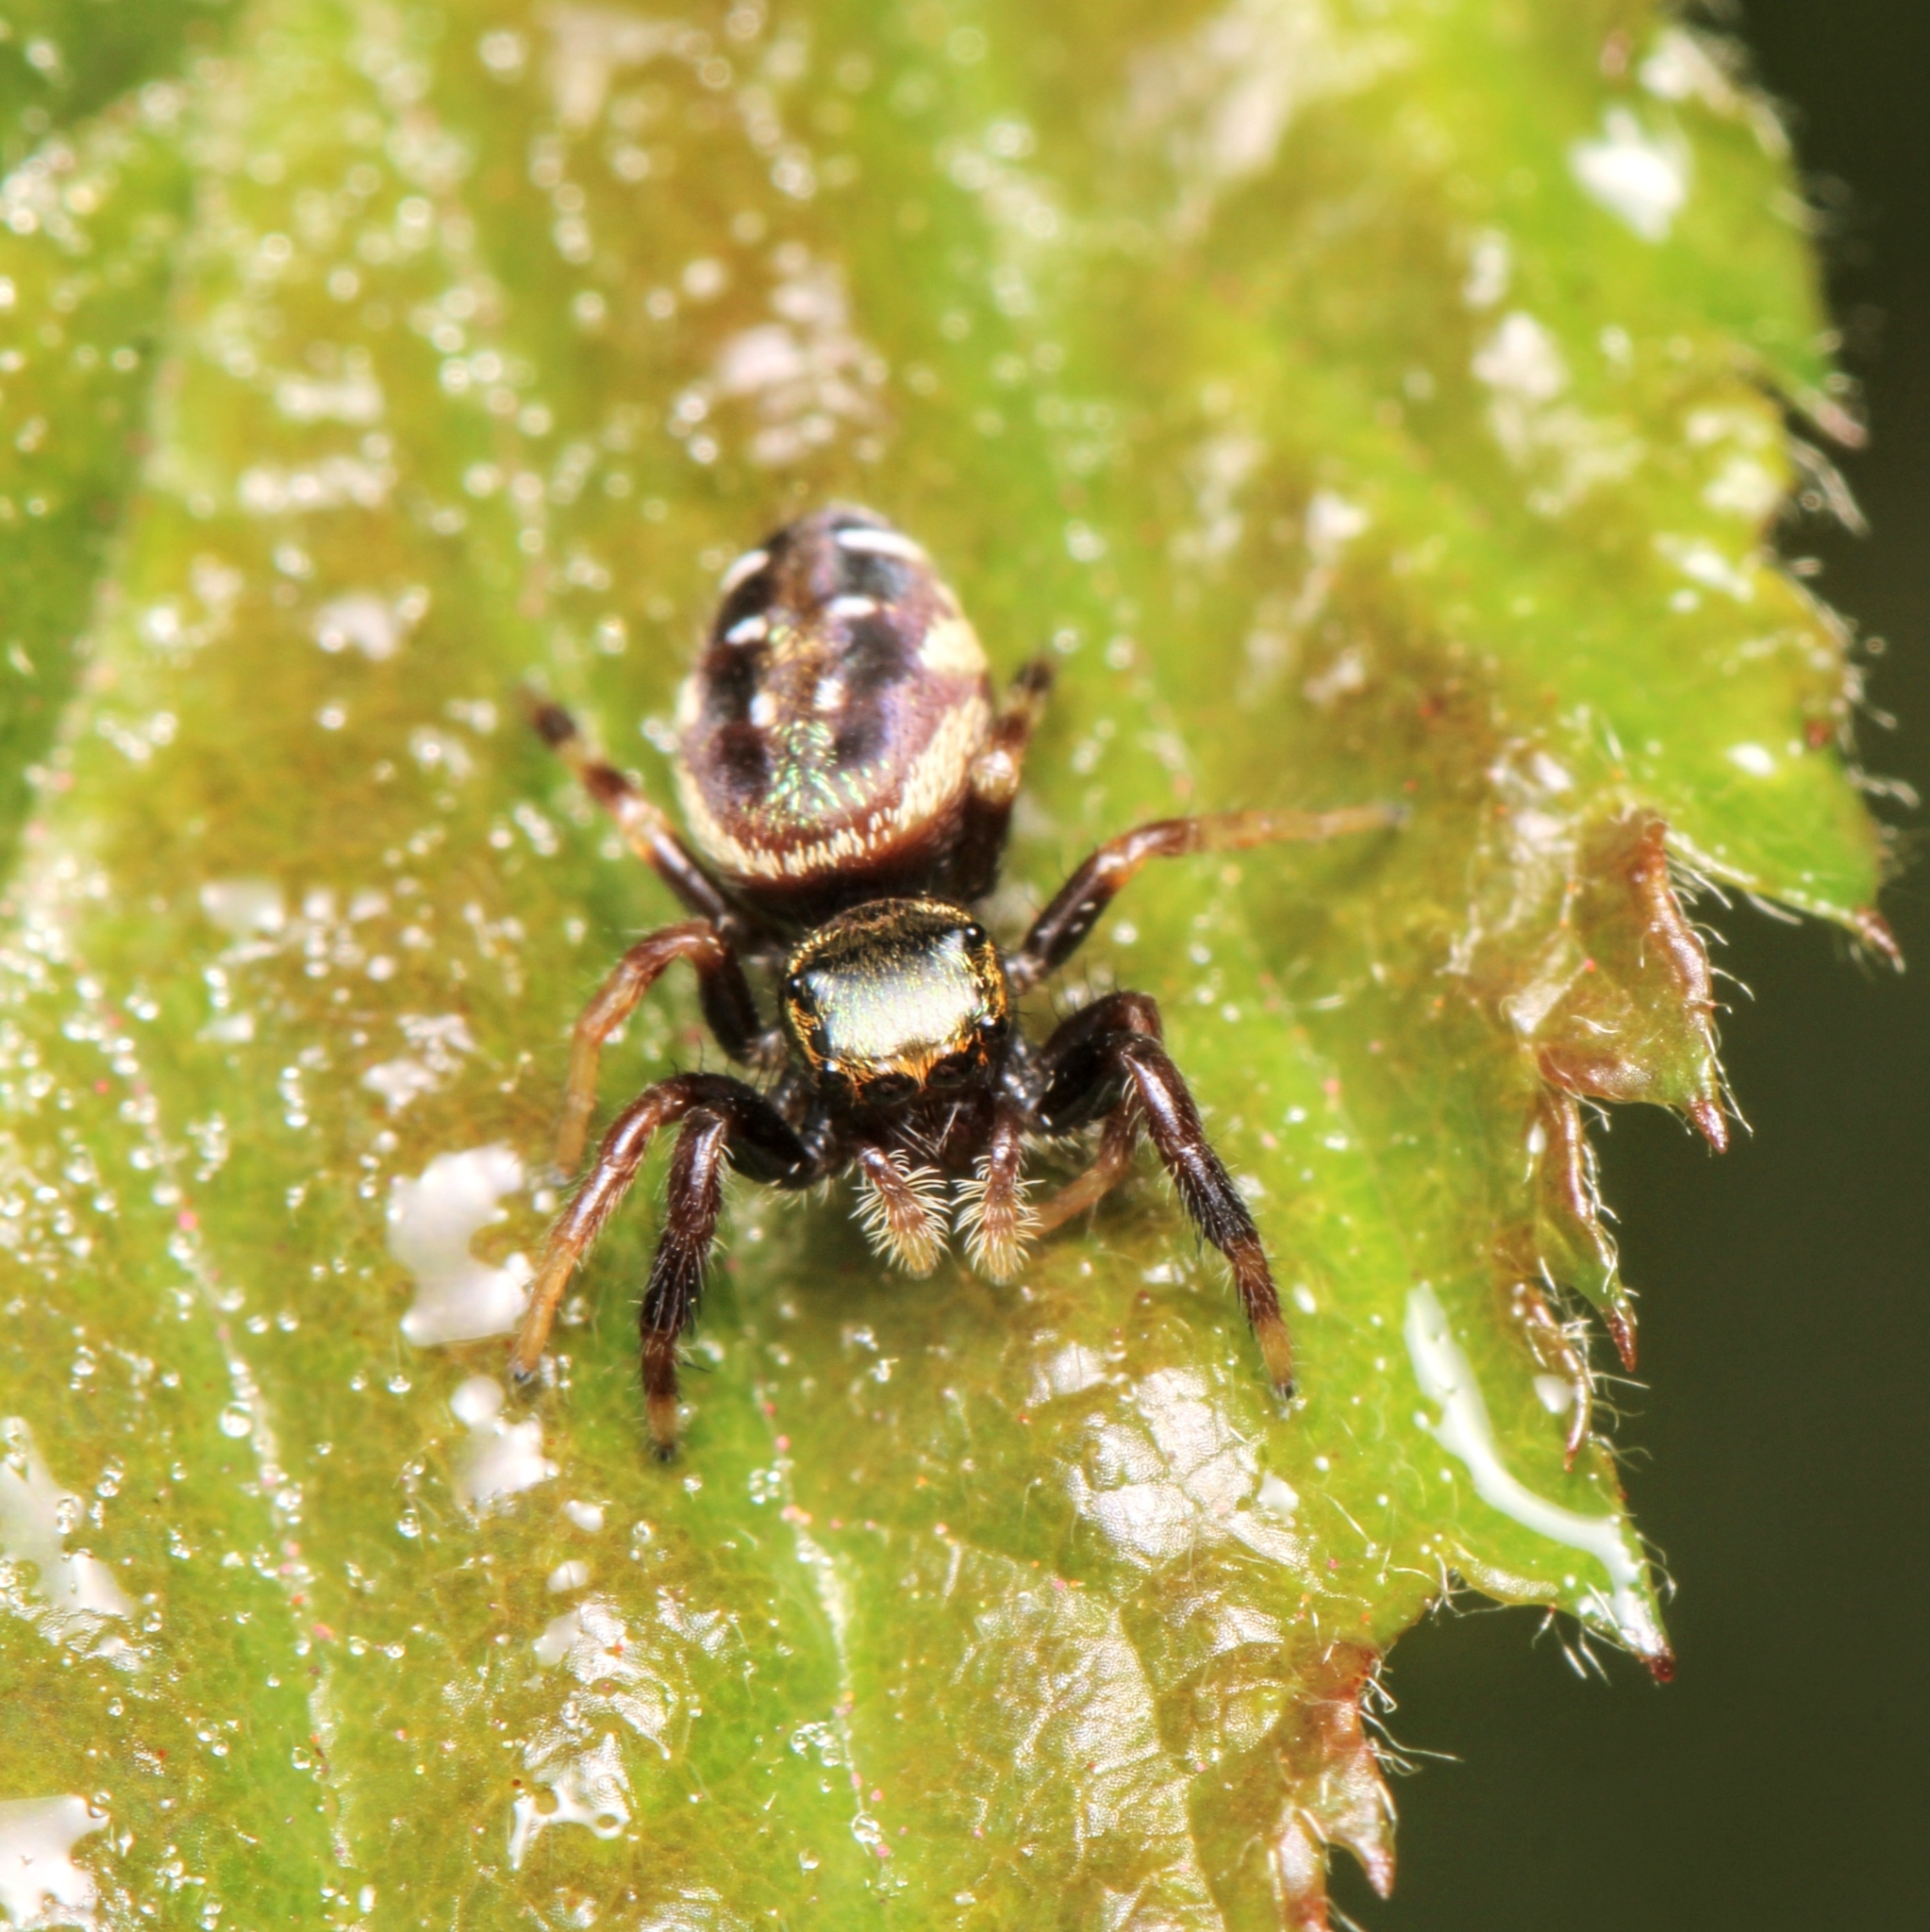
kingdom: Animalia
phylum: Arthropoda
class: Arachnida
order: Araneae
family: Salticidae
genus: Paraphidippus
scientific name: Paraphidippus aurantius
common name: Jumping spiders
